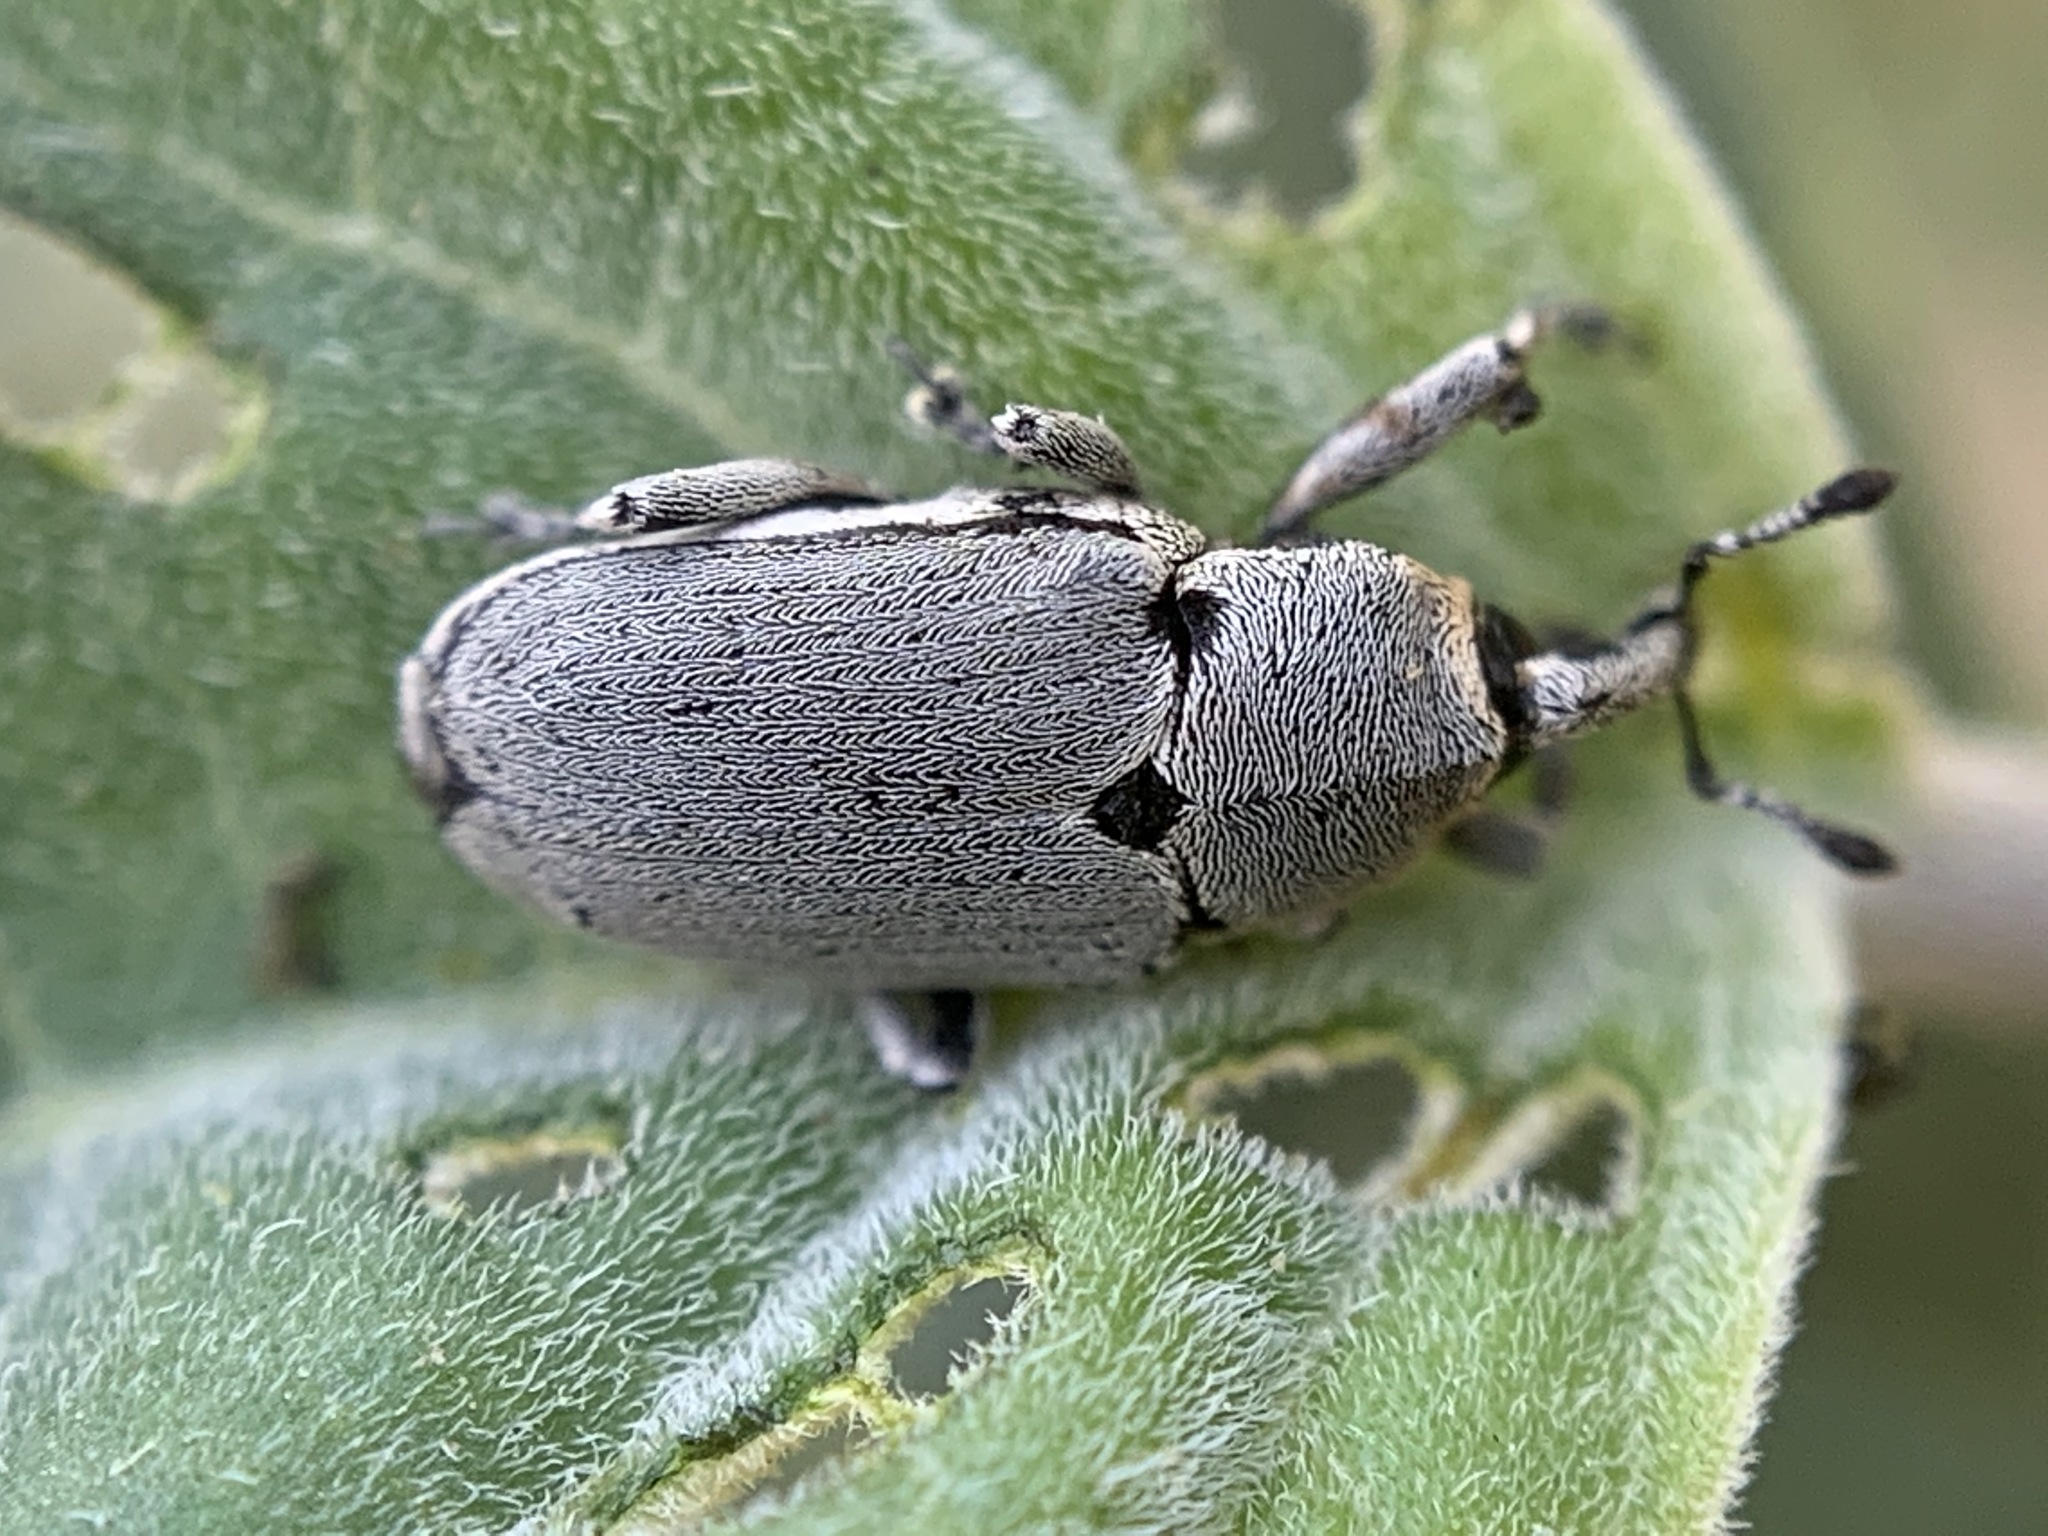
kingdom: Animalia
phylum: Arthropoda
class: Insecta
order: Coleoptera
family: Curculionidae
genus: Trichobaris
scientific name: Trichobaris mucorea
